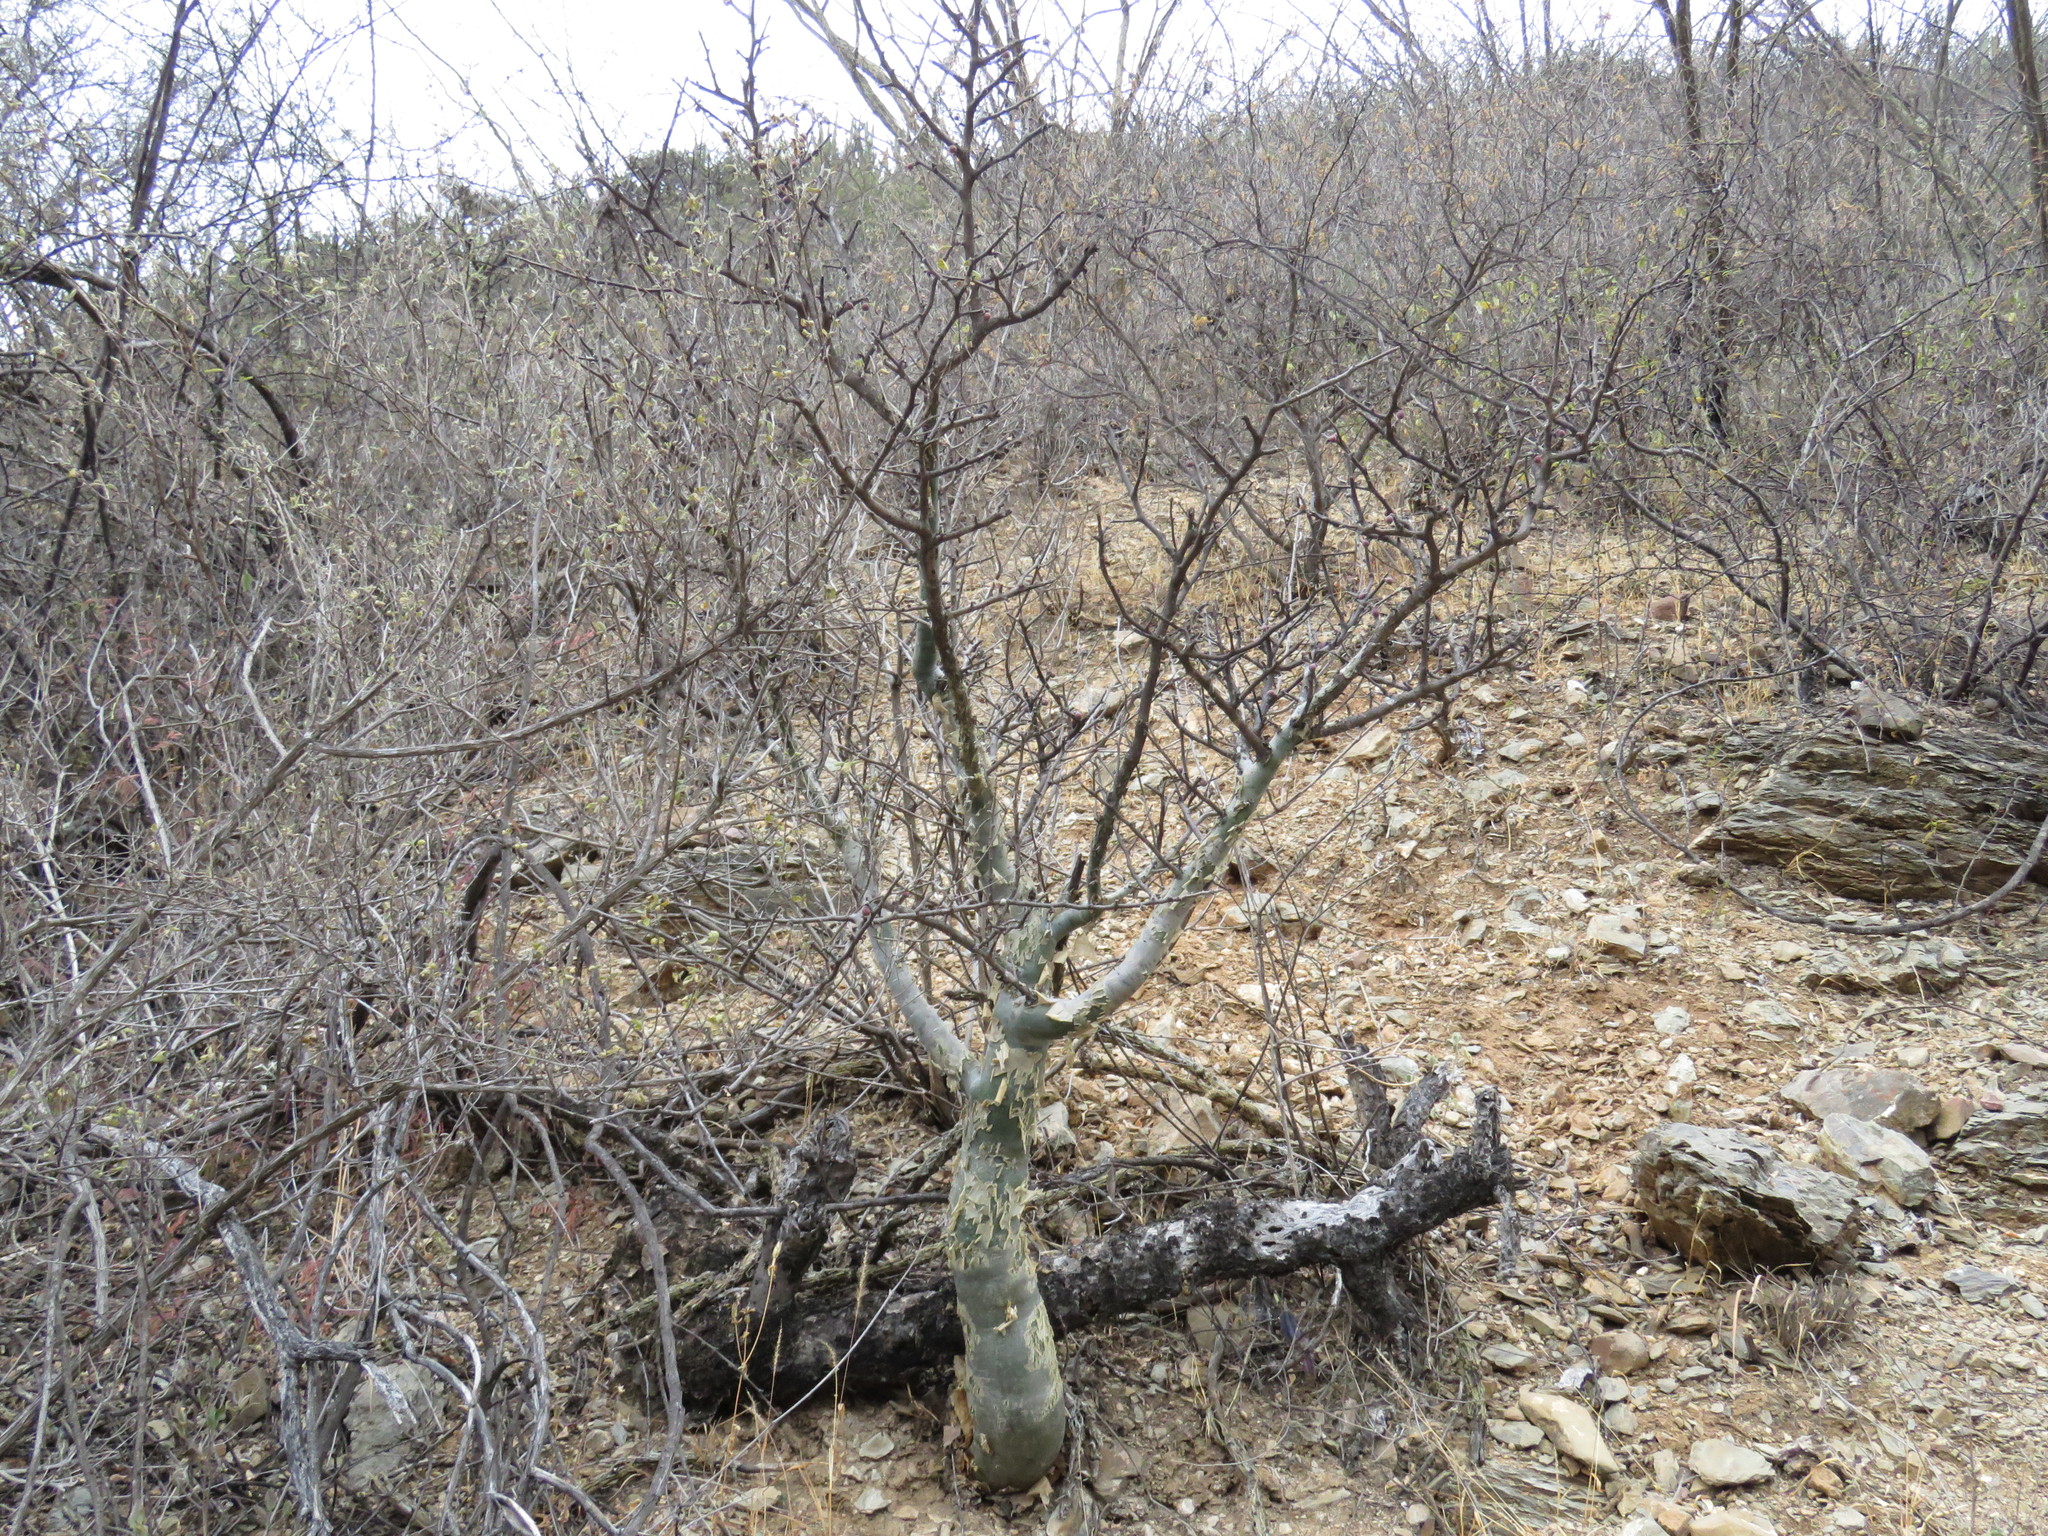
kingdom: Plantae
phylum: Tracheophyta
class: Magnoliopsida
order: Sapindales
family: Burseraceae
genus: Bursera
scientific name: Bursera fagaroides
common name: Elephant tree
